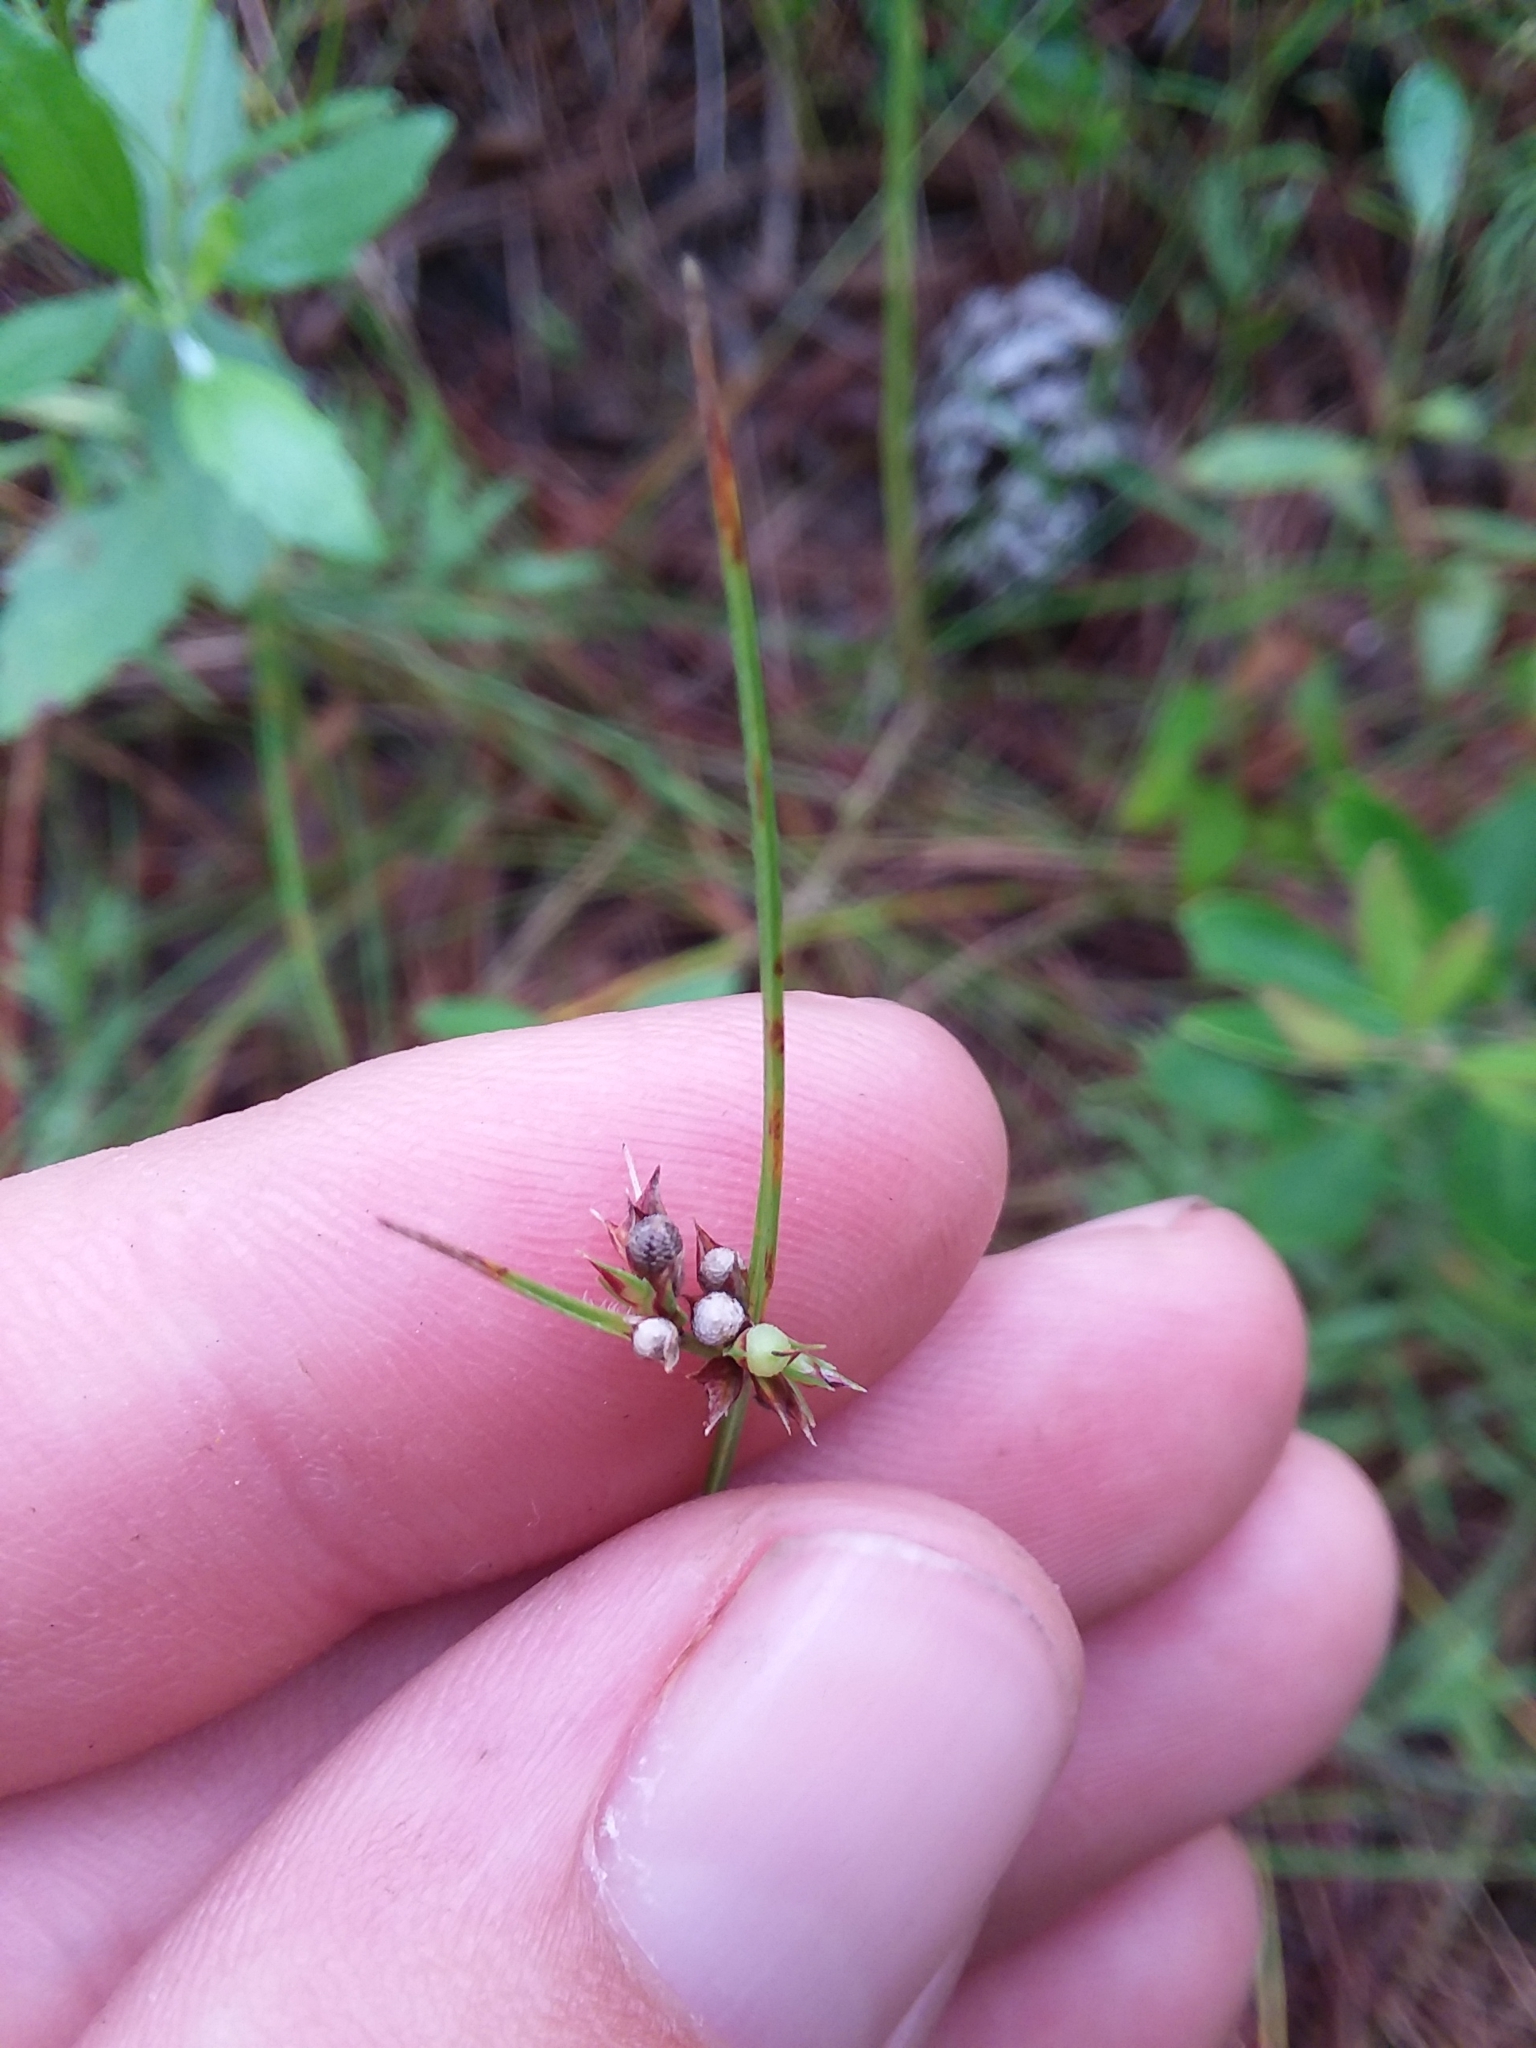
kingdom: Plantae
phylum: Tracheophyta
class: Liliopsida
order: Poales
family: Cyperaceae
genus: Scleria
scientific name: Scleria pauciflora
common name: Few-flowered nutrush
